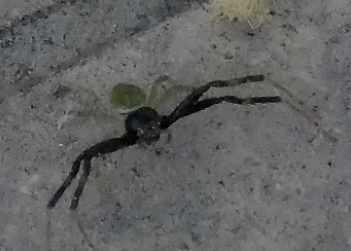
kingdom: Animalia
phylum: Arthropoda
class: Arachnida
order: Araneae
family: Thomisidae
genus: Misumenoides
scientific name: Misumenoides formosipes
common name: White-banded crab spider
